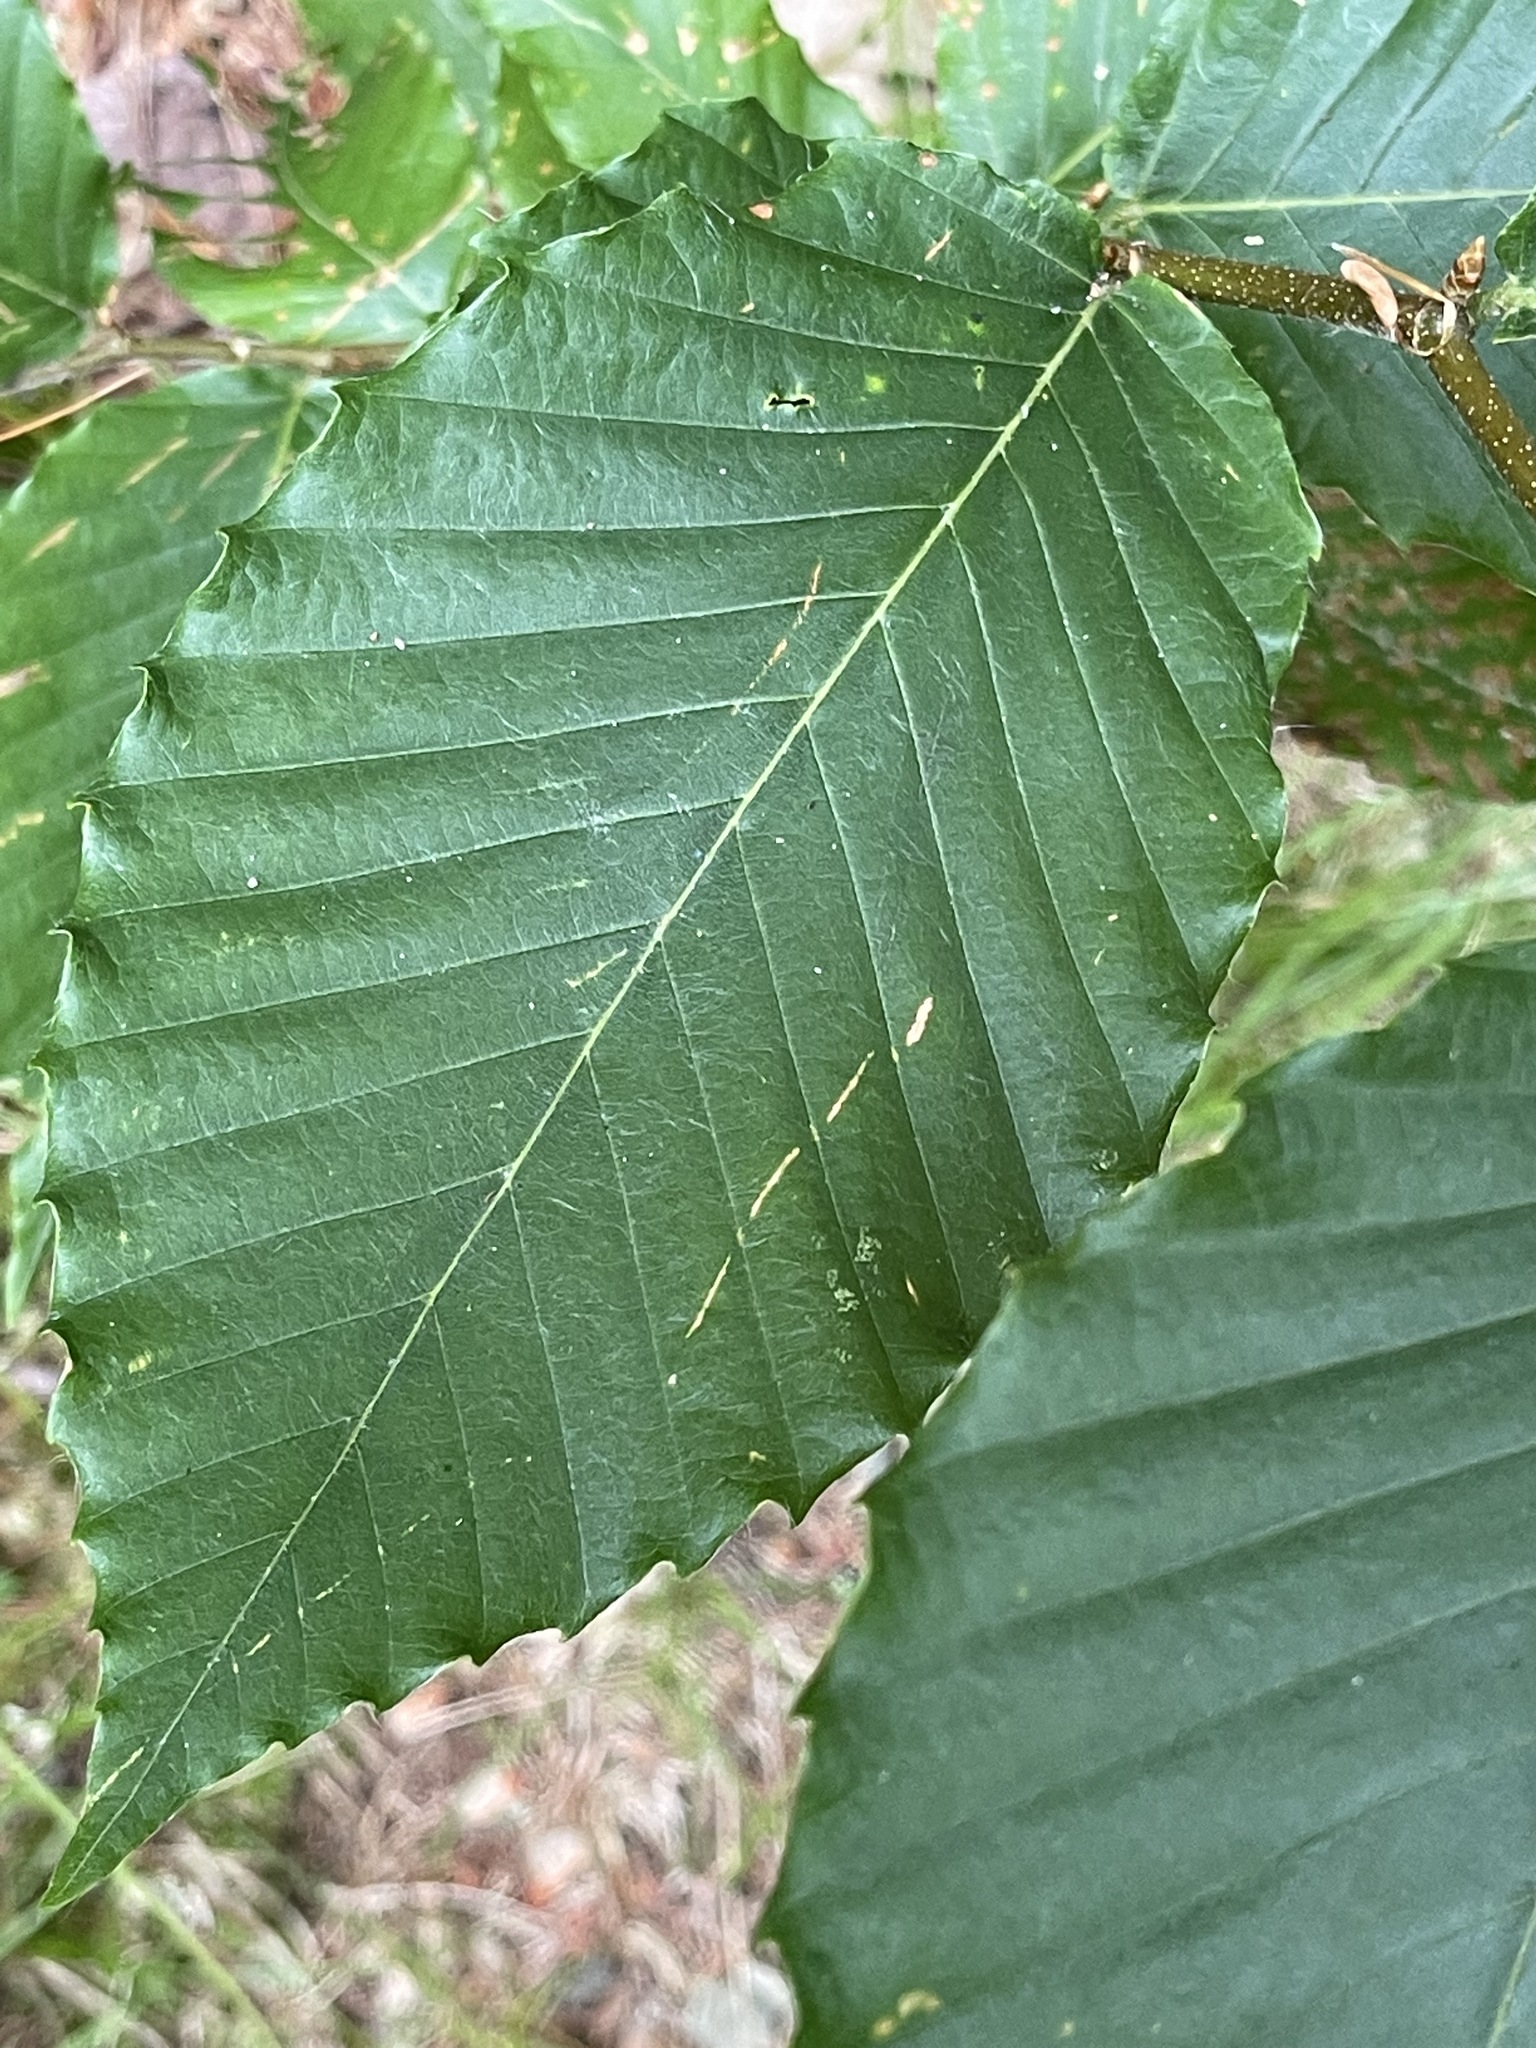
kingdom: Plantae
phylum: Tracheophyta
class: Magnoliopsida
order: Fagales
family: Fagaceae
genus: Fagus
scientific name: Fagus grandifolia
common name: American beech
